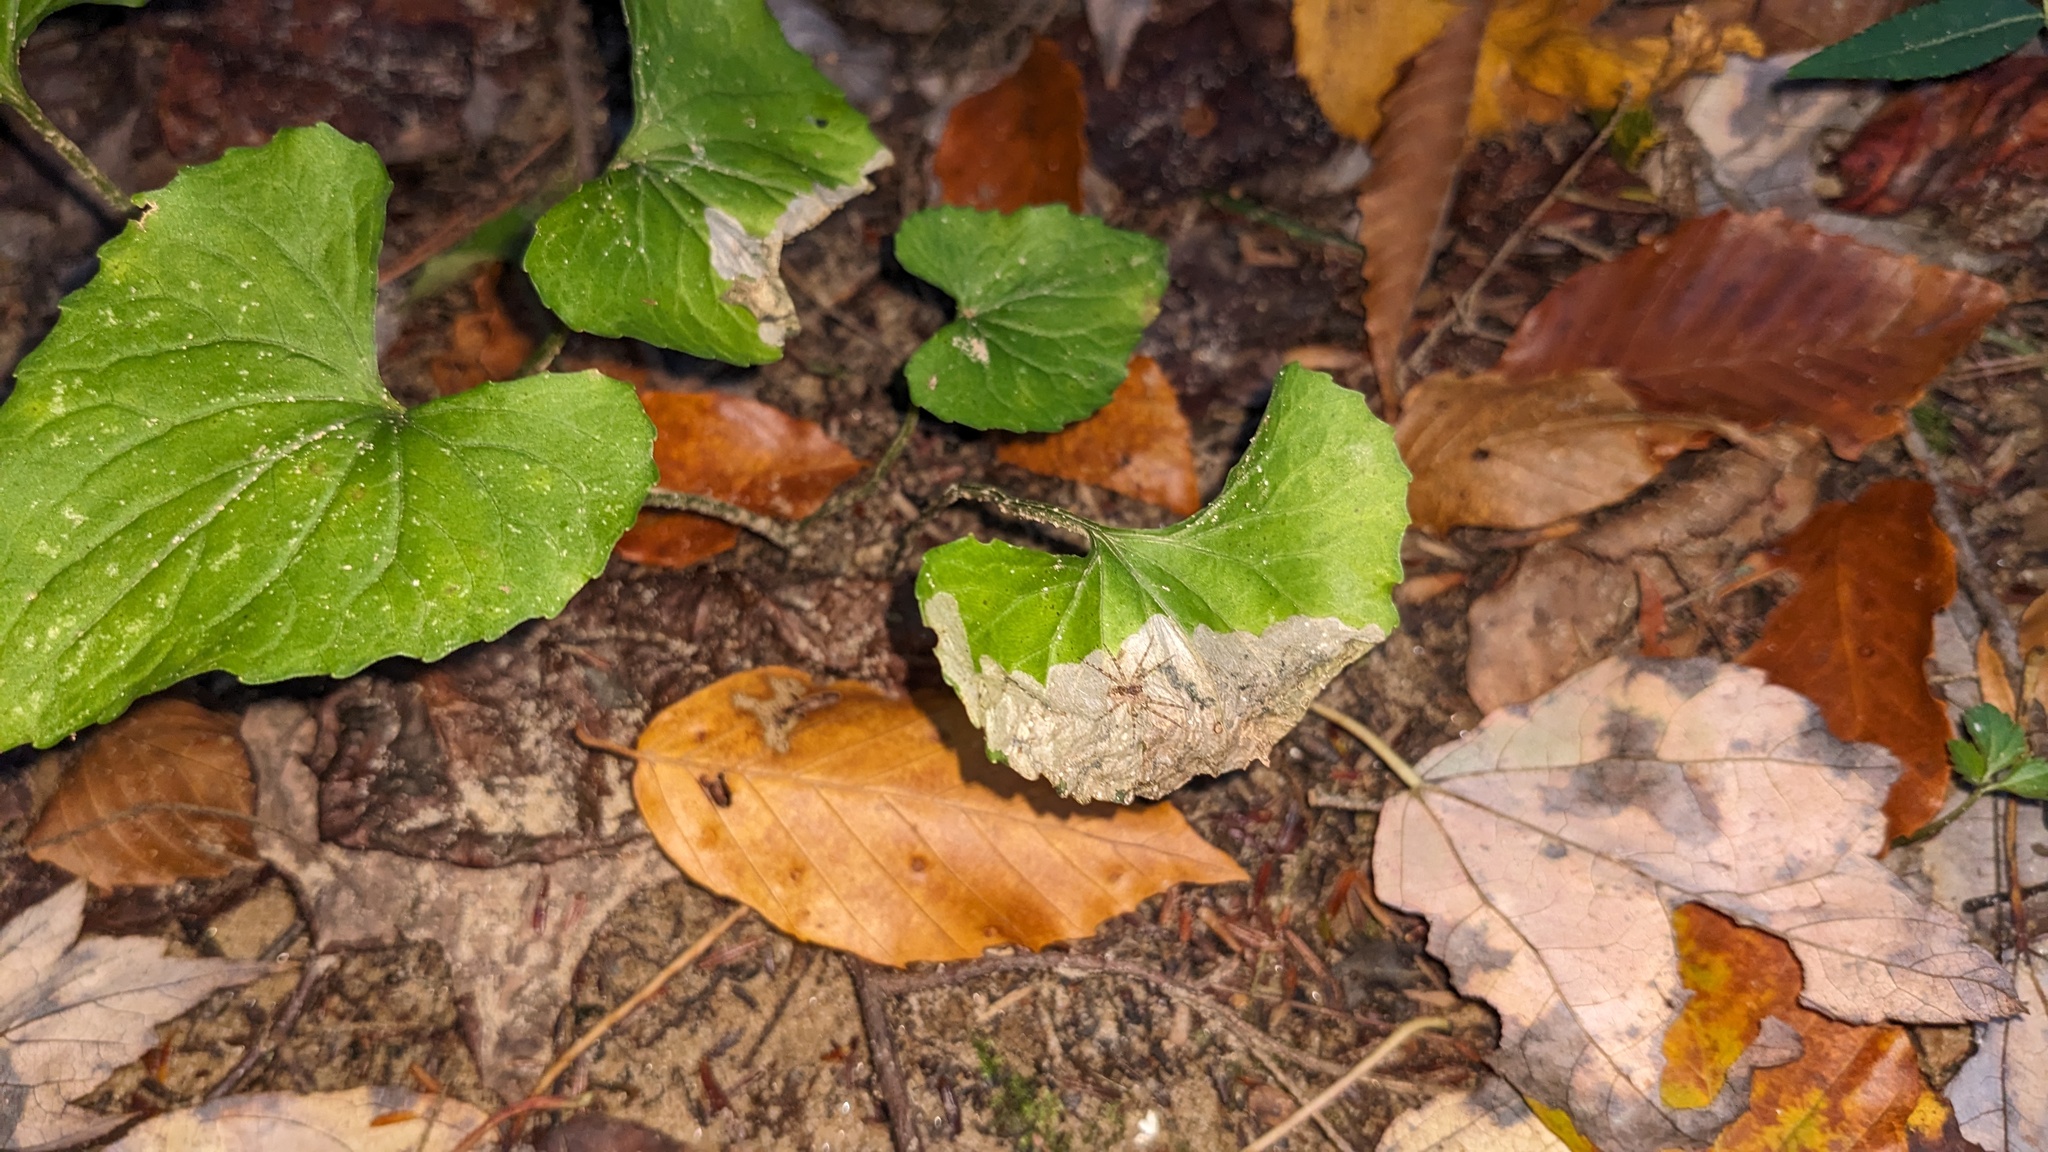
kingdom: Animalia
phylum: Arthropoda
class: Insecta
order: Hymenoptera
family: Tenthredinidae
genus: Nefusa
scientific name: Nefusa ambigua
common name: Violet leafmining sawfly
